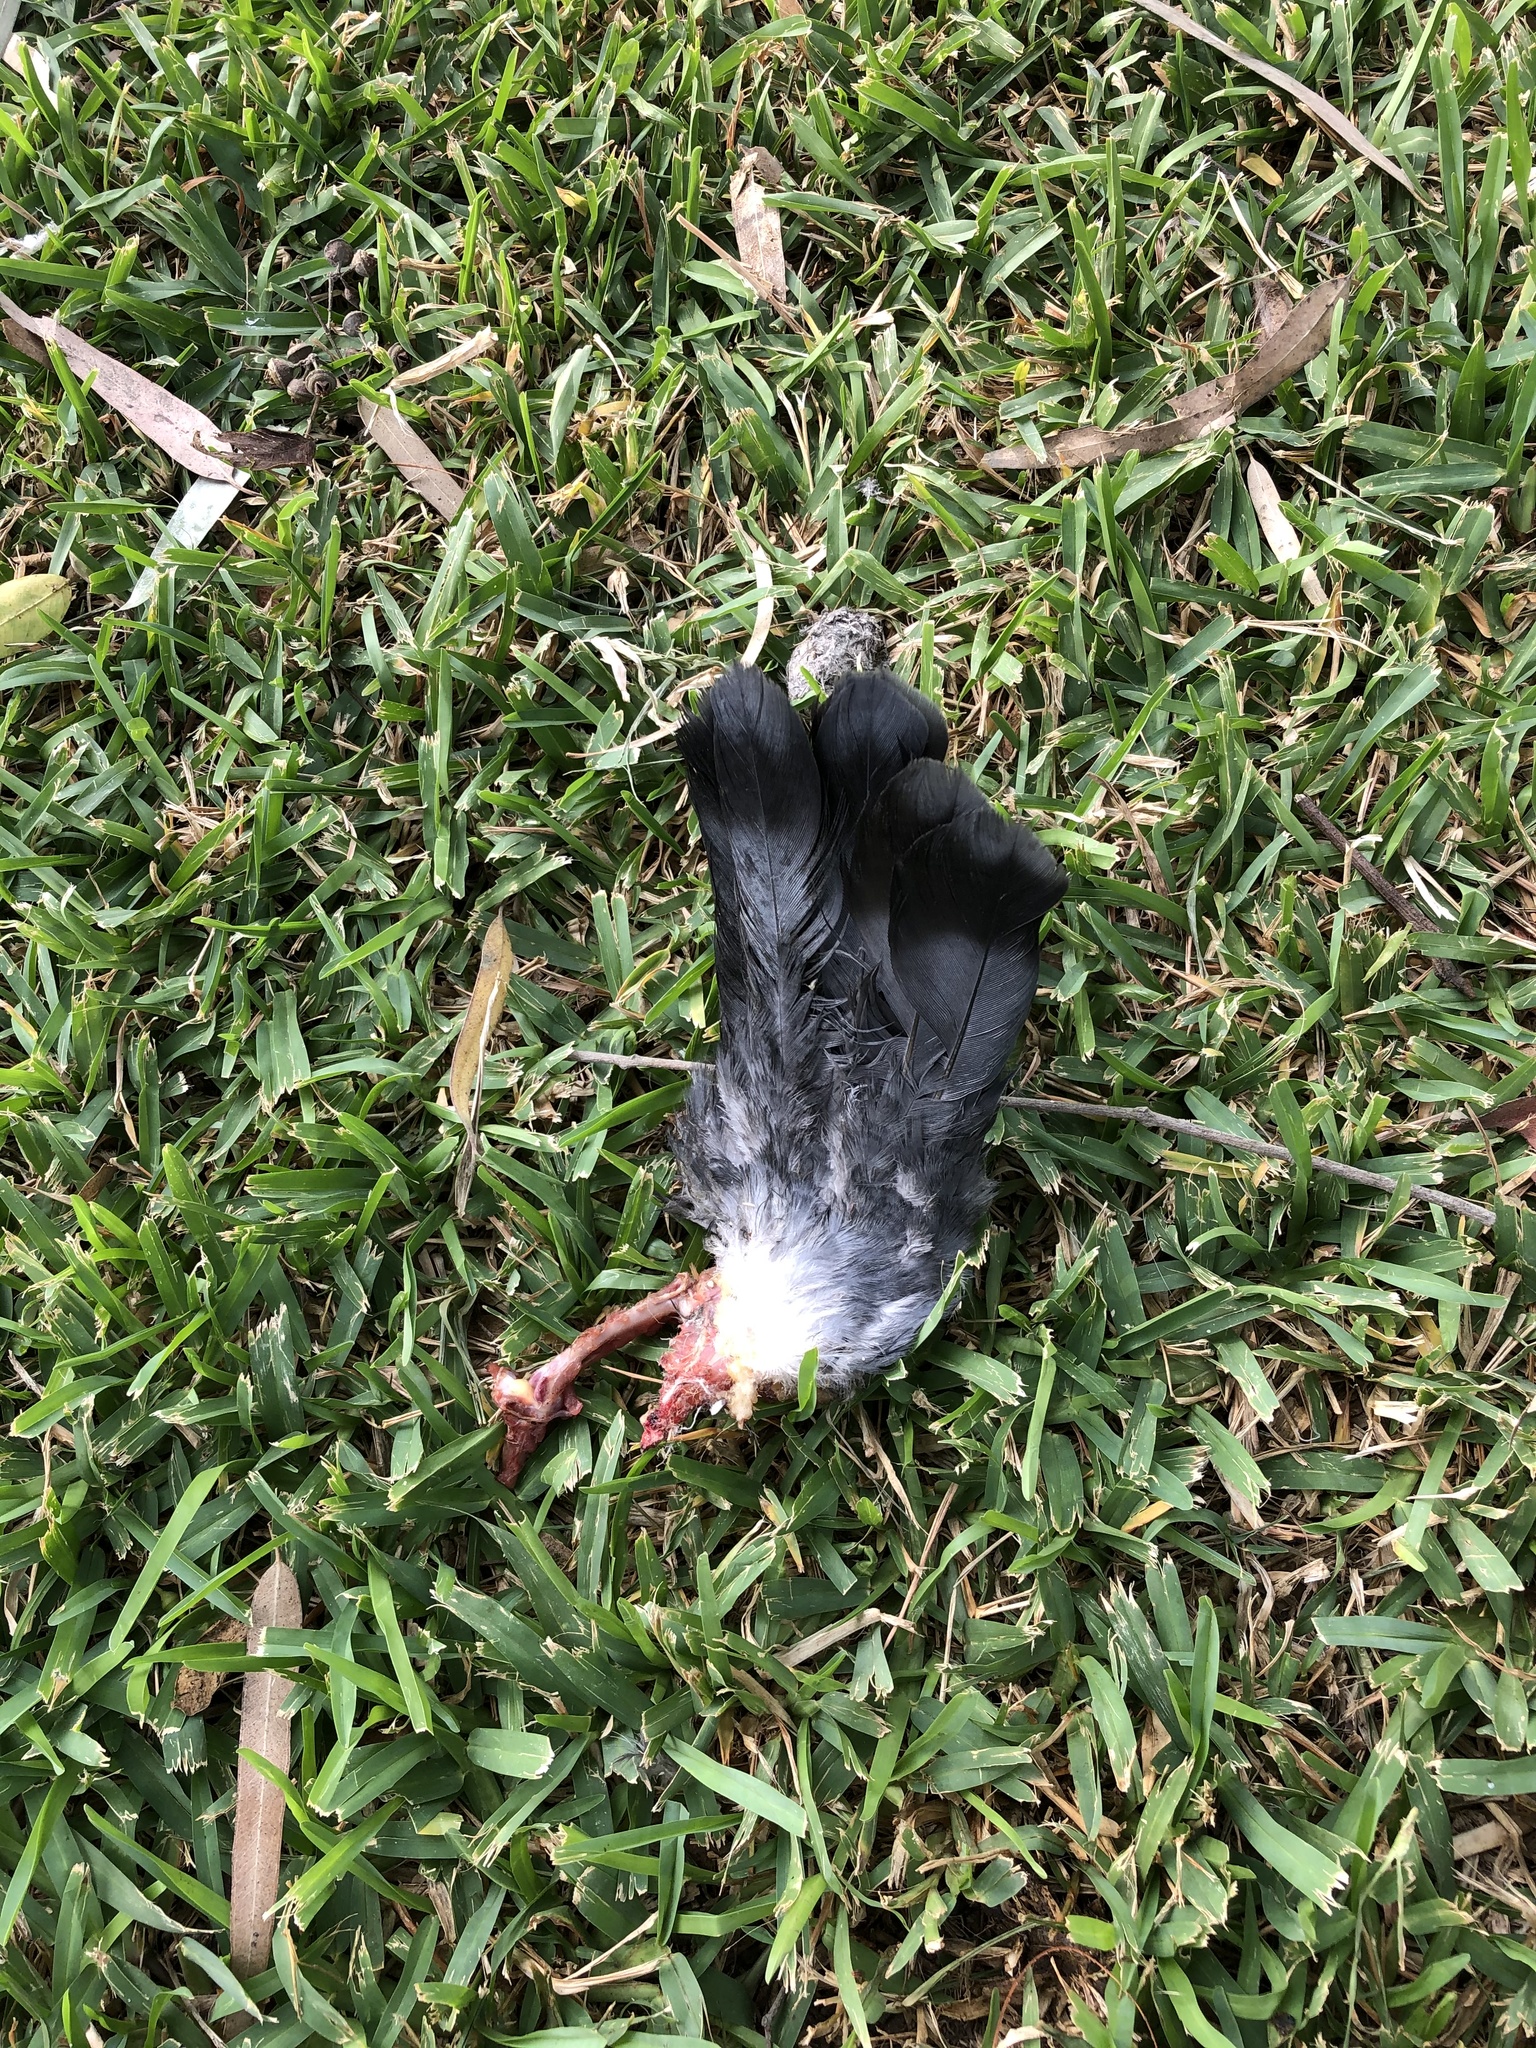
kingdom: Animalia
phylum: Chordata
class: Aves
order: Columbiformes
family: Columbidae
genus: Columba
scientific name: Columba livia
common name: Rock pigeon
